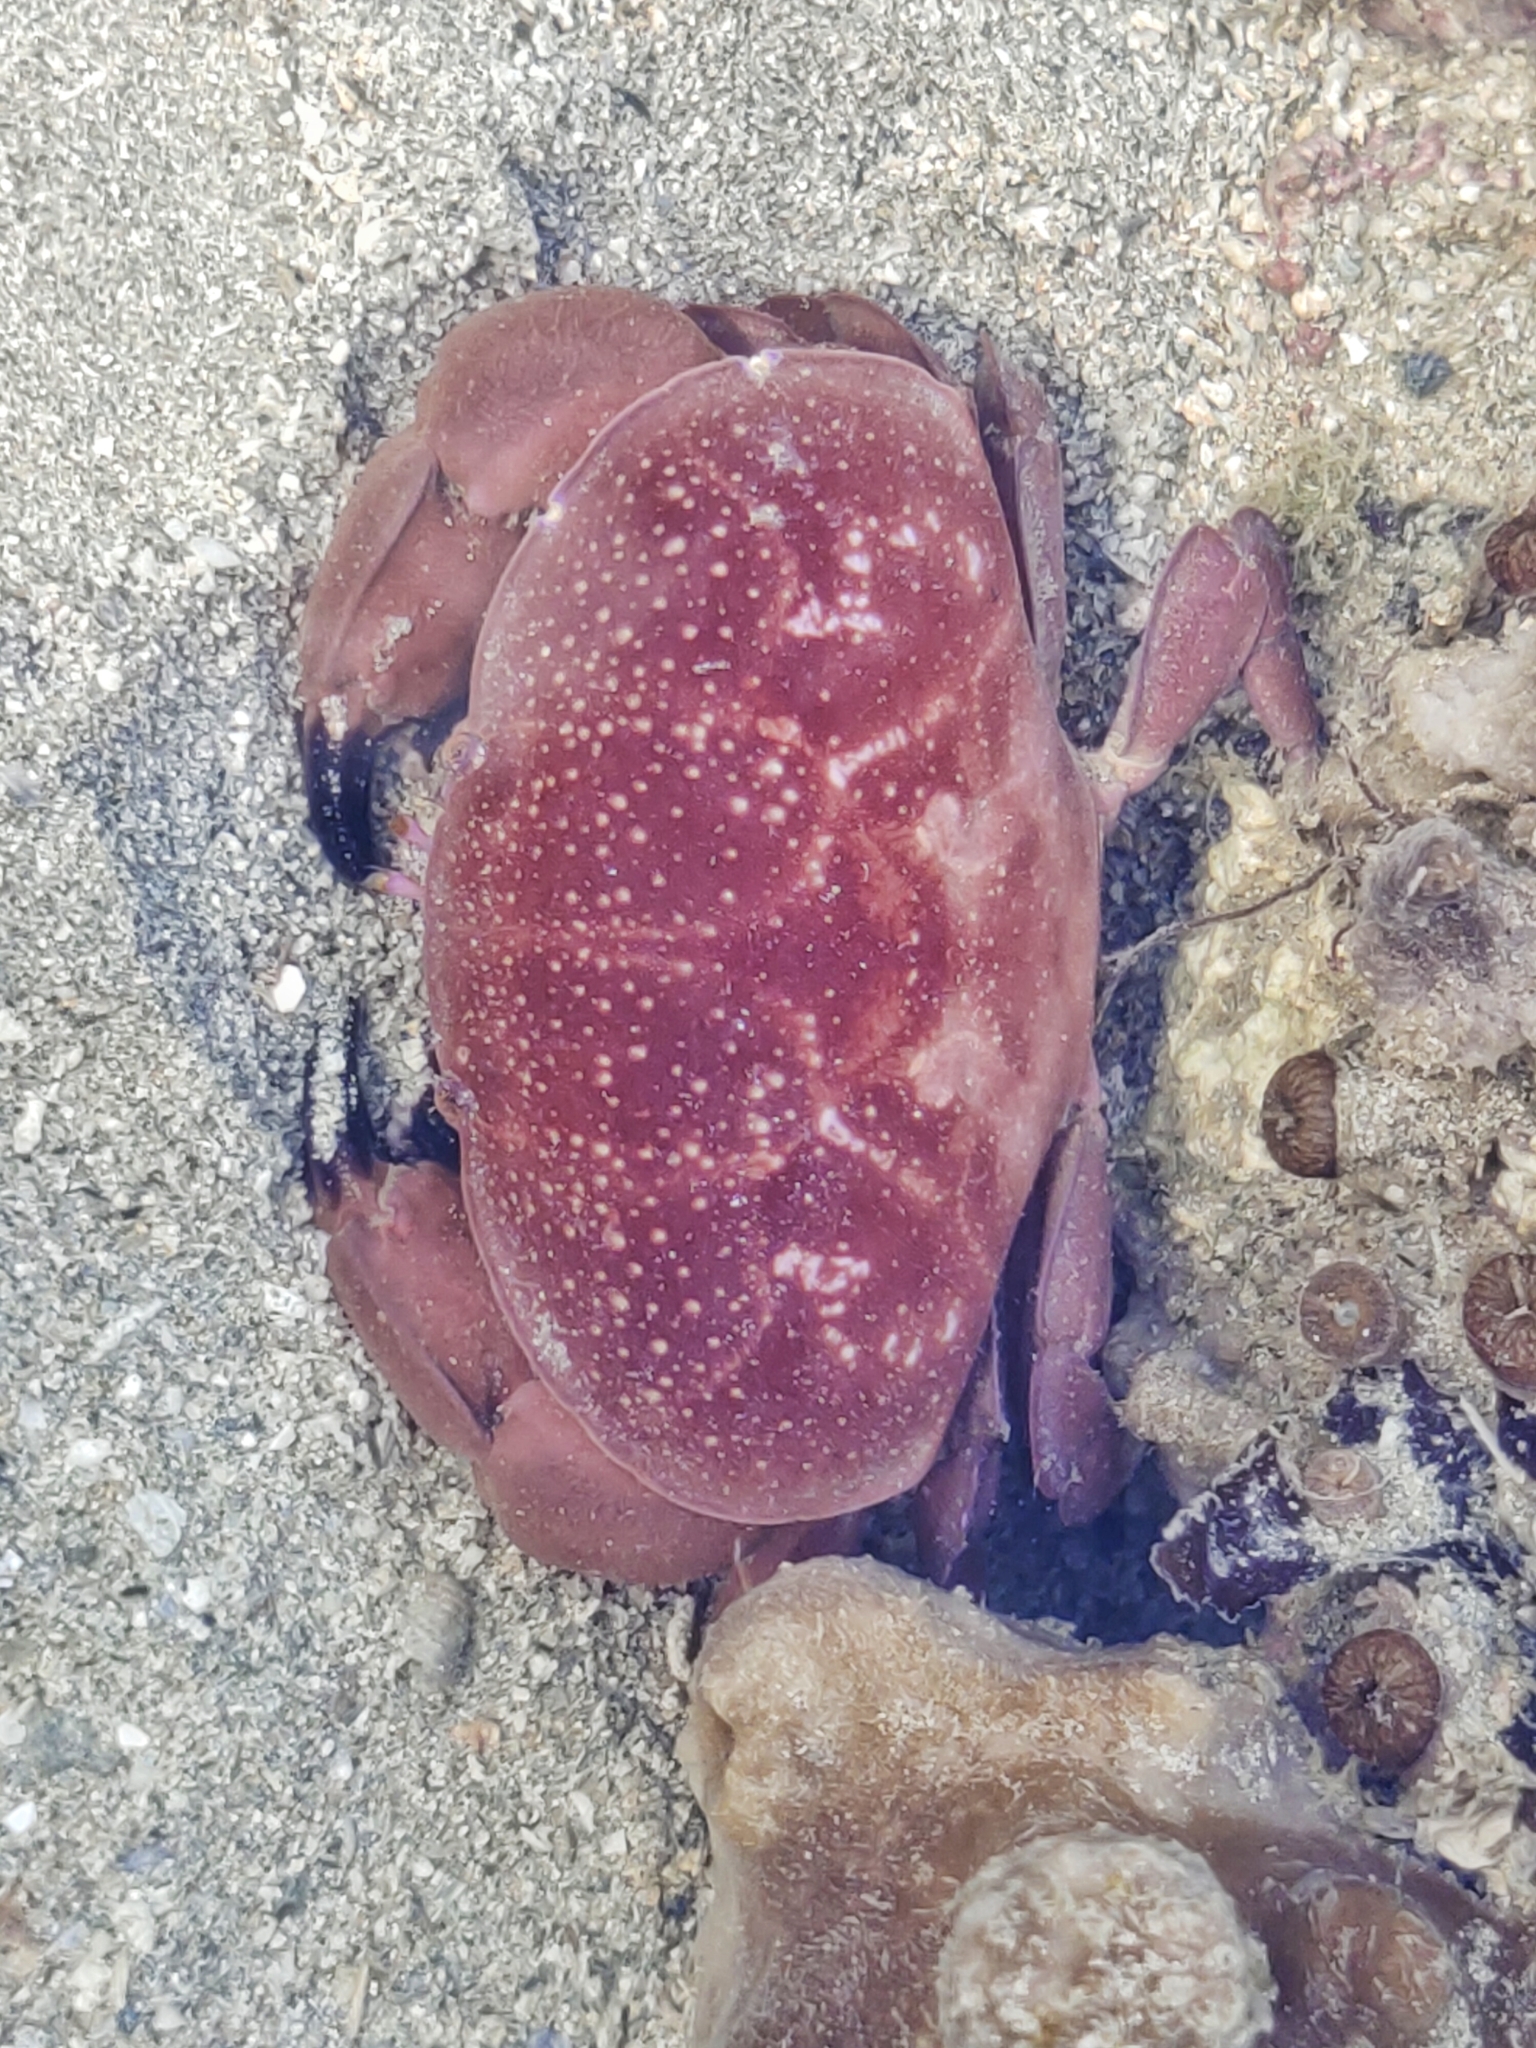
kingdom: Animalia
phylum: Arthropoda
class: Malacostraca
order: Decapoda
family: Xanthidae
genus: Atergatis
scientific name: Atergatis integerrimus
